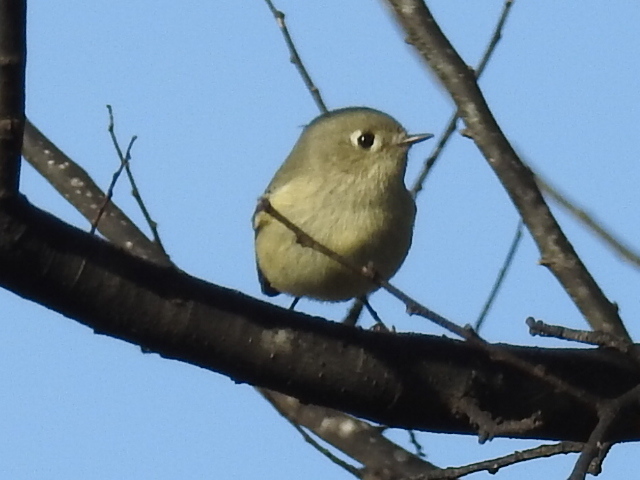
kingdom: Animalia
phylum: Chordata
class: Aves
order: Passeriformes
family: Regulidae
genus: Regulus
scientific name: Regulus calendula
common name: Ruby-crowned kinglet
